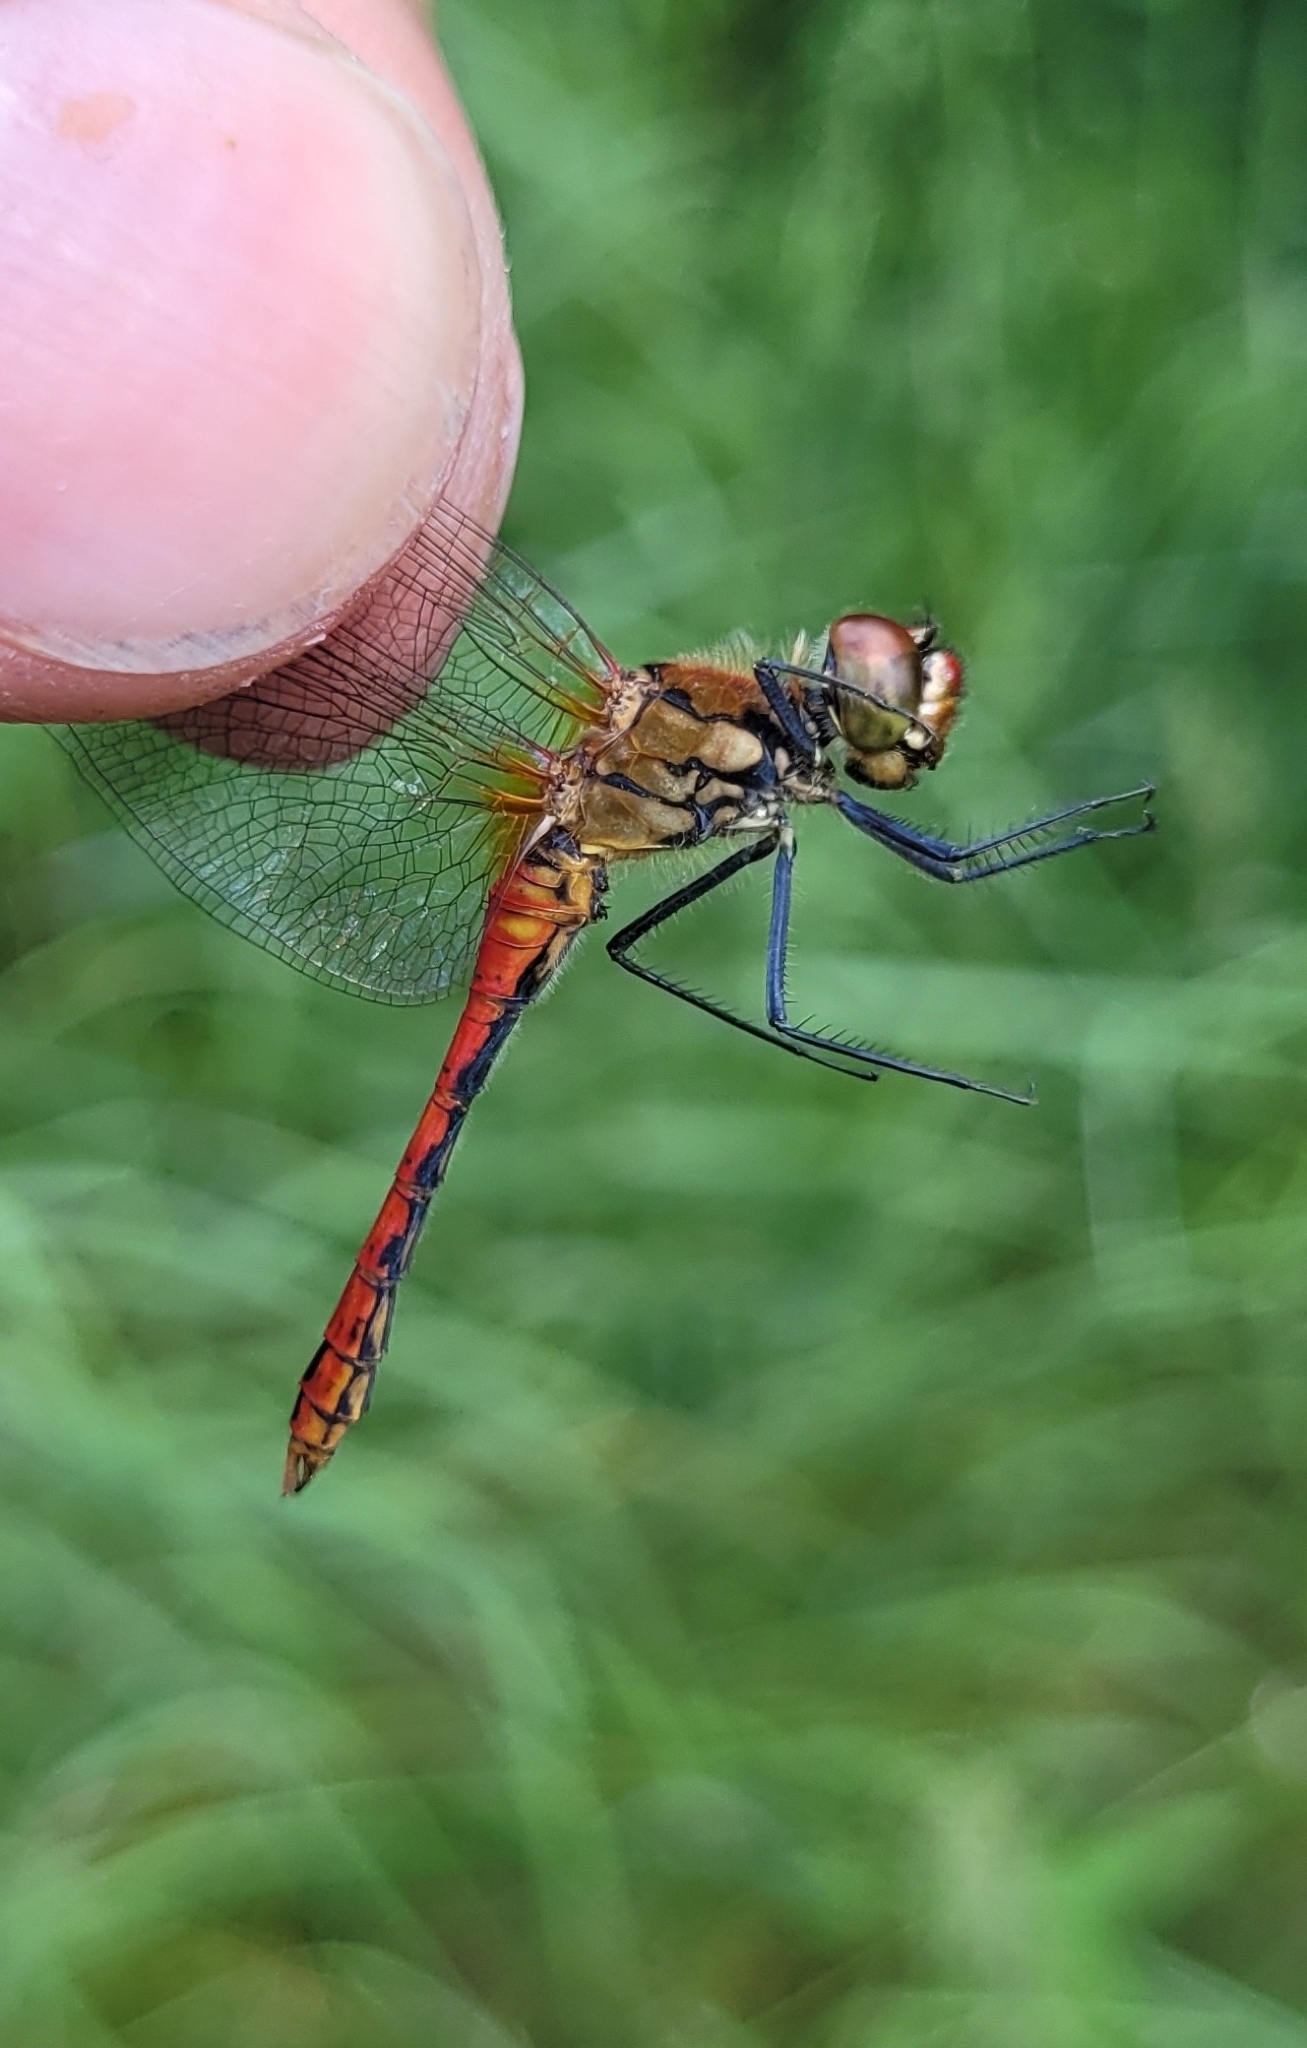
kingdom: Animalia
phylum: Arthropoda
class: Insecta
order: Odonata
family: Libellulidae
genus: Sympetrum
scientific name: Sympetrum sanguineum
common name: Ruddy darter
